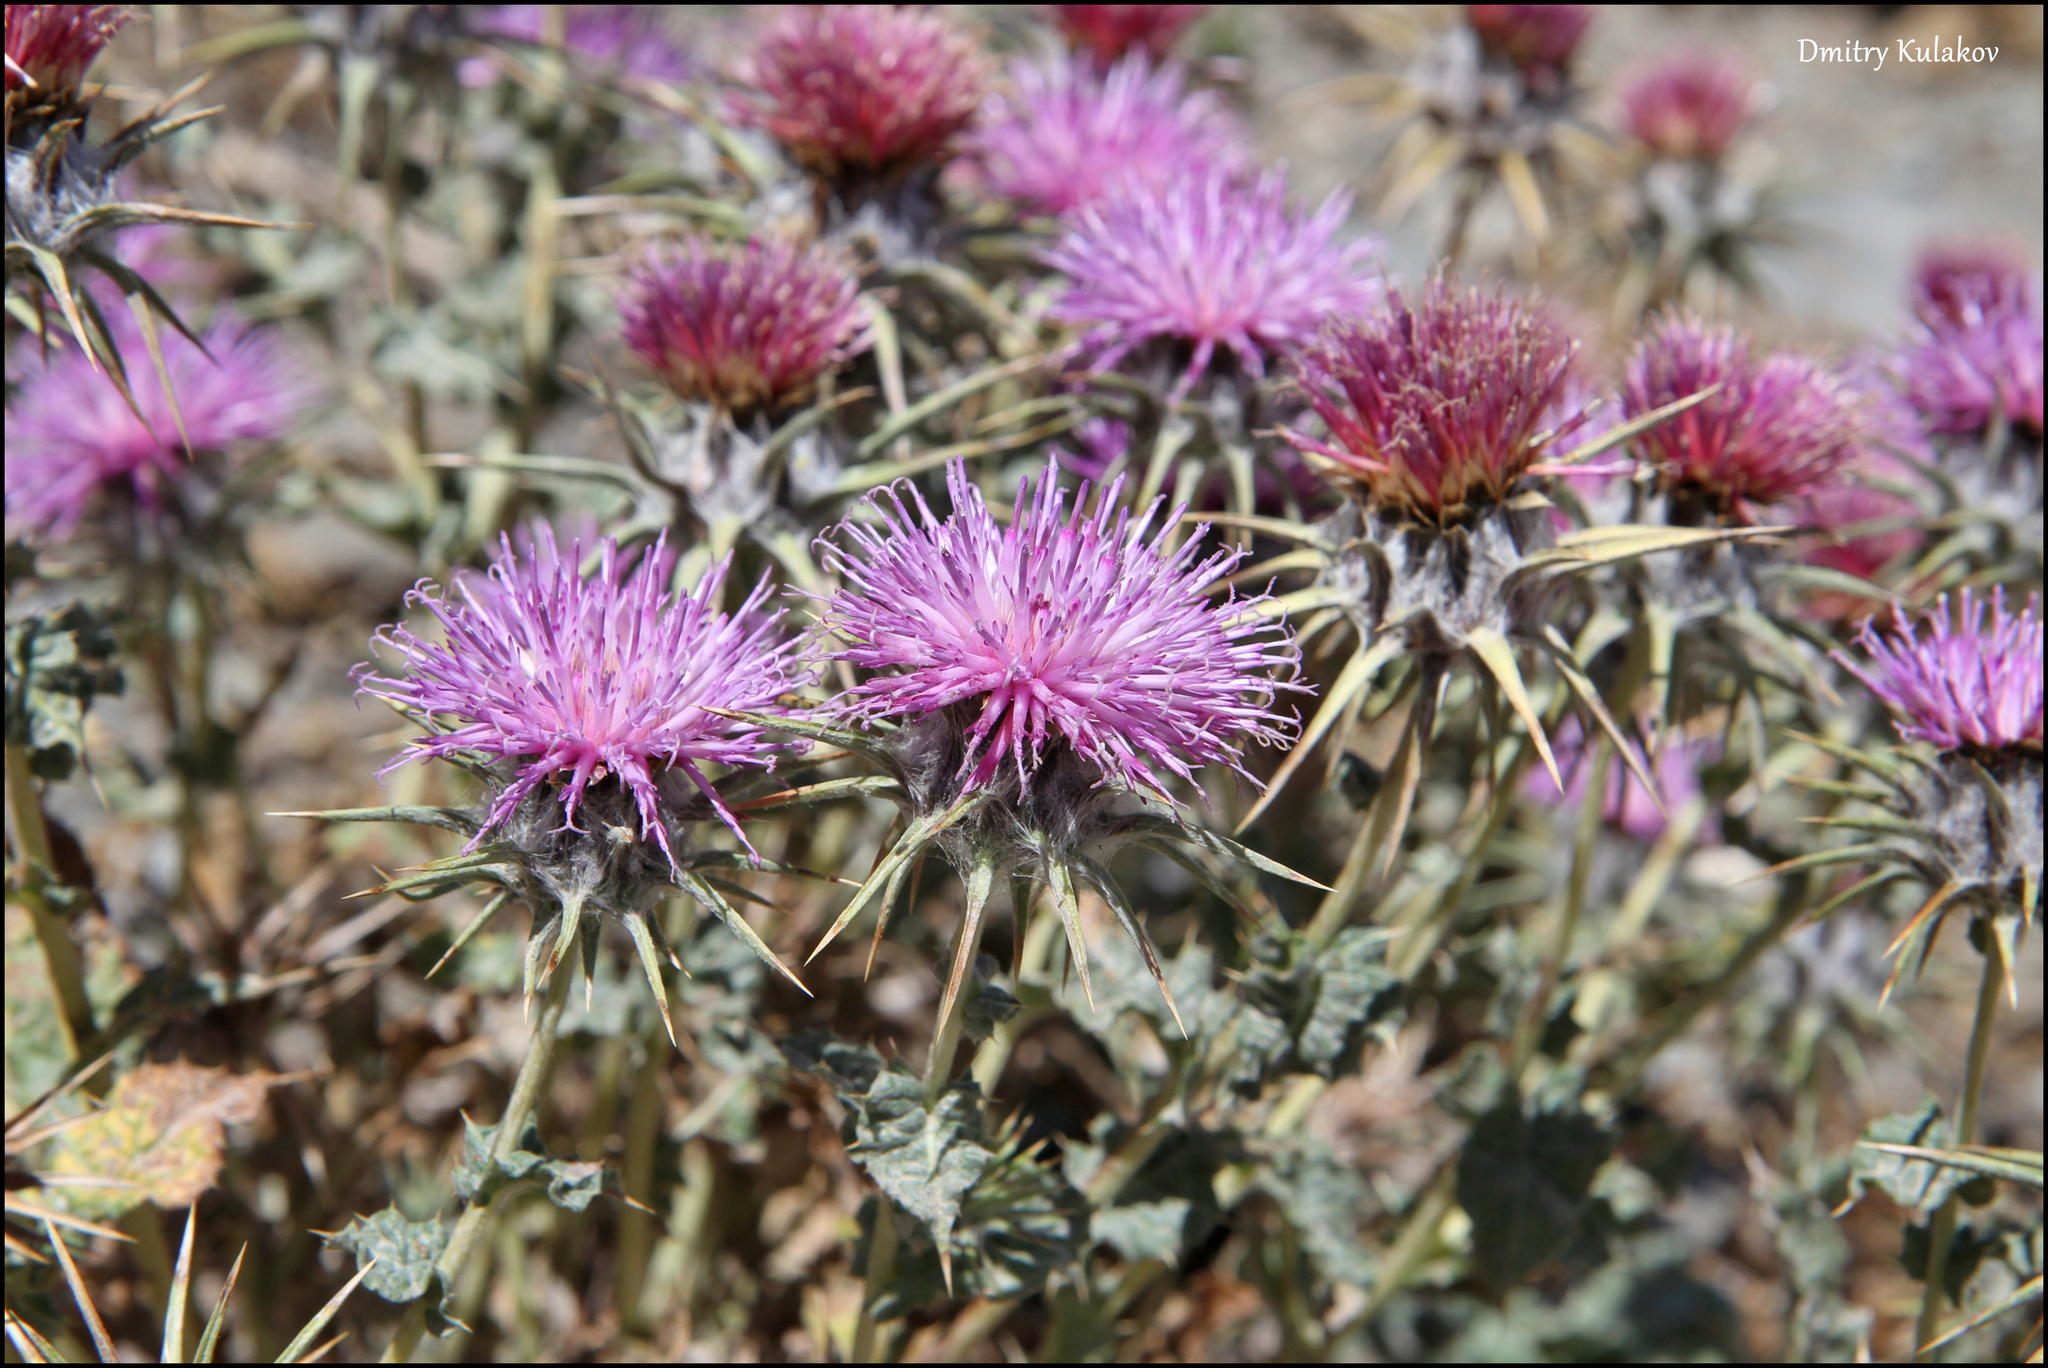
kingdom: Plantae
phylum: Tracheophyta
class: Magnoliopsida
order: Asterales
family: Asteraceae
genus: Cousinia
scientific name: Cousinia carduncelloidea
